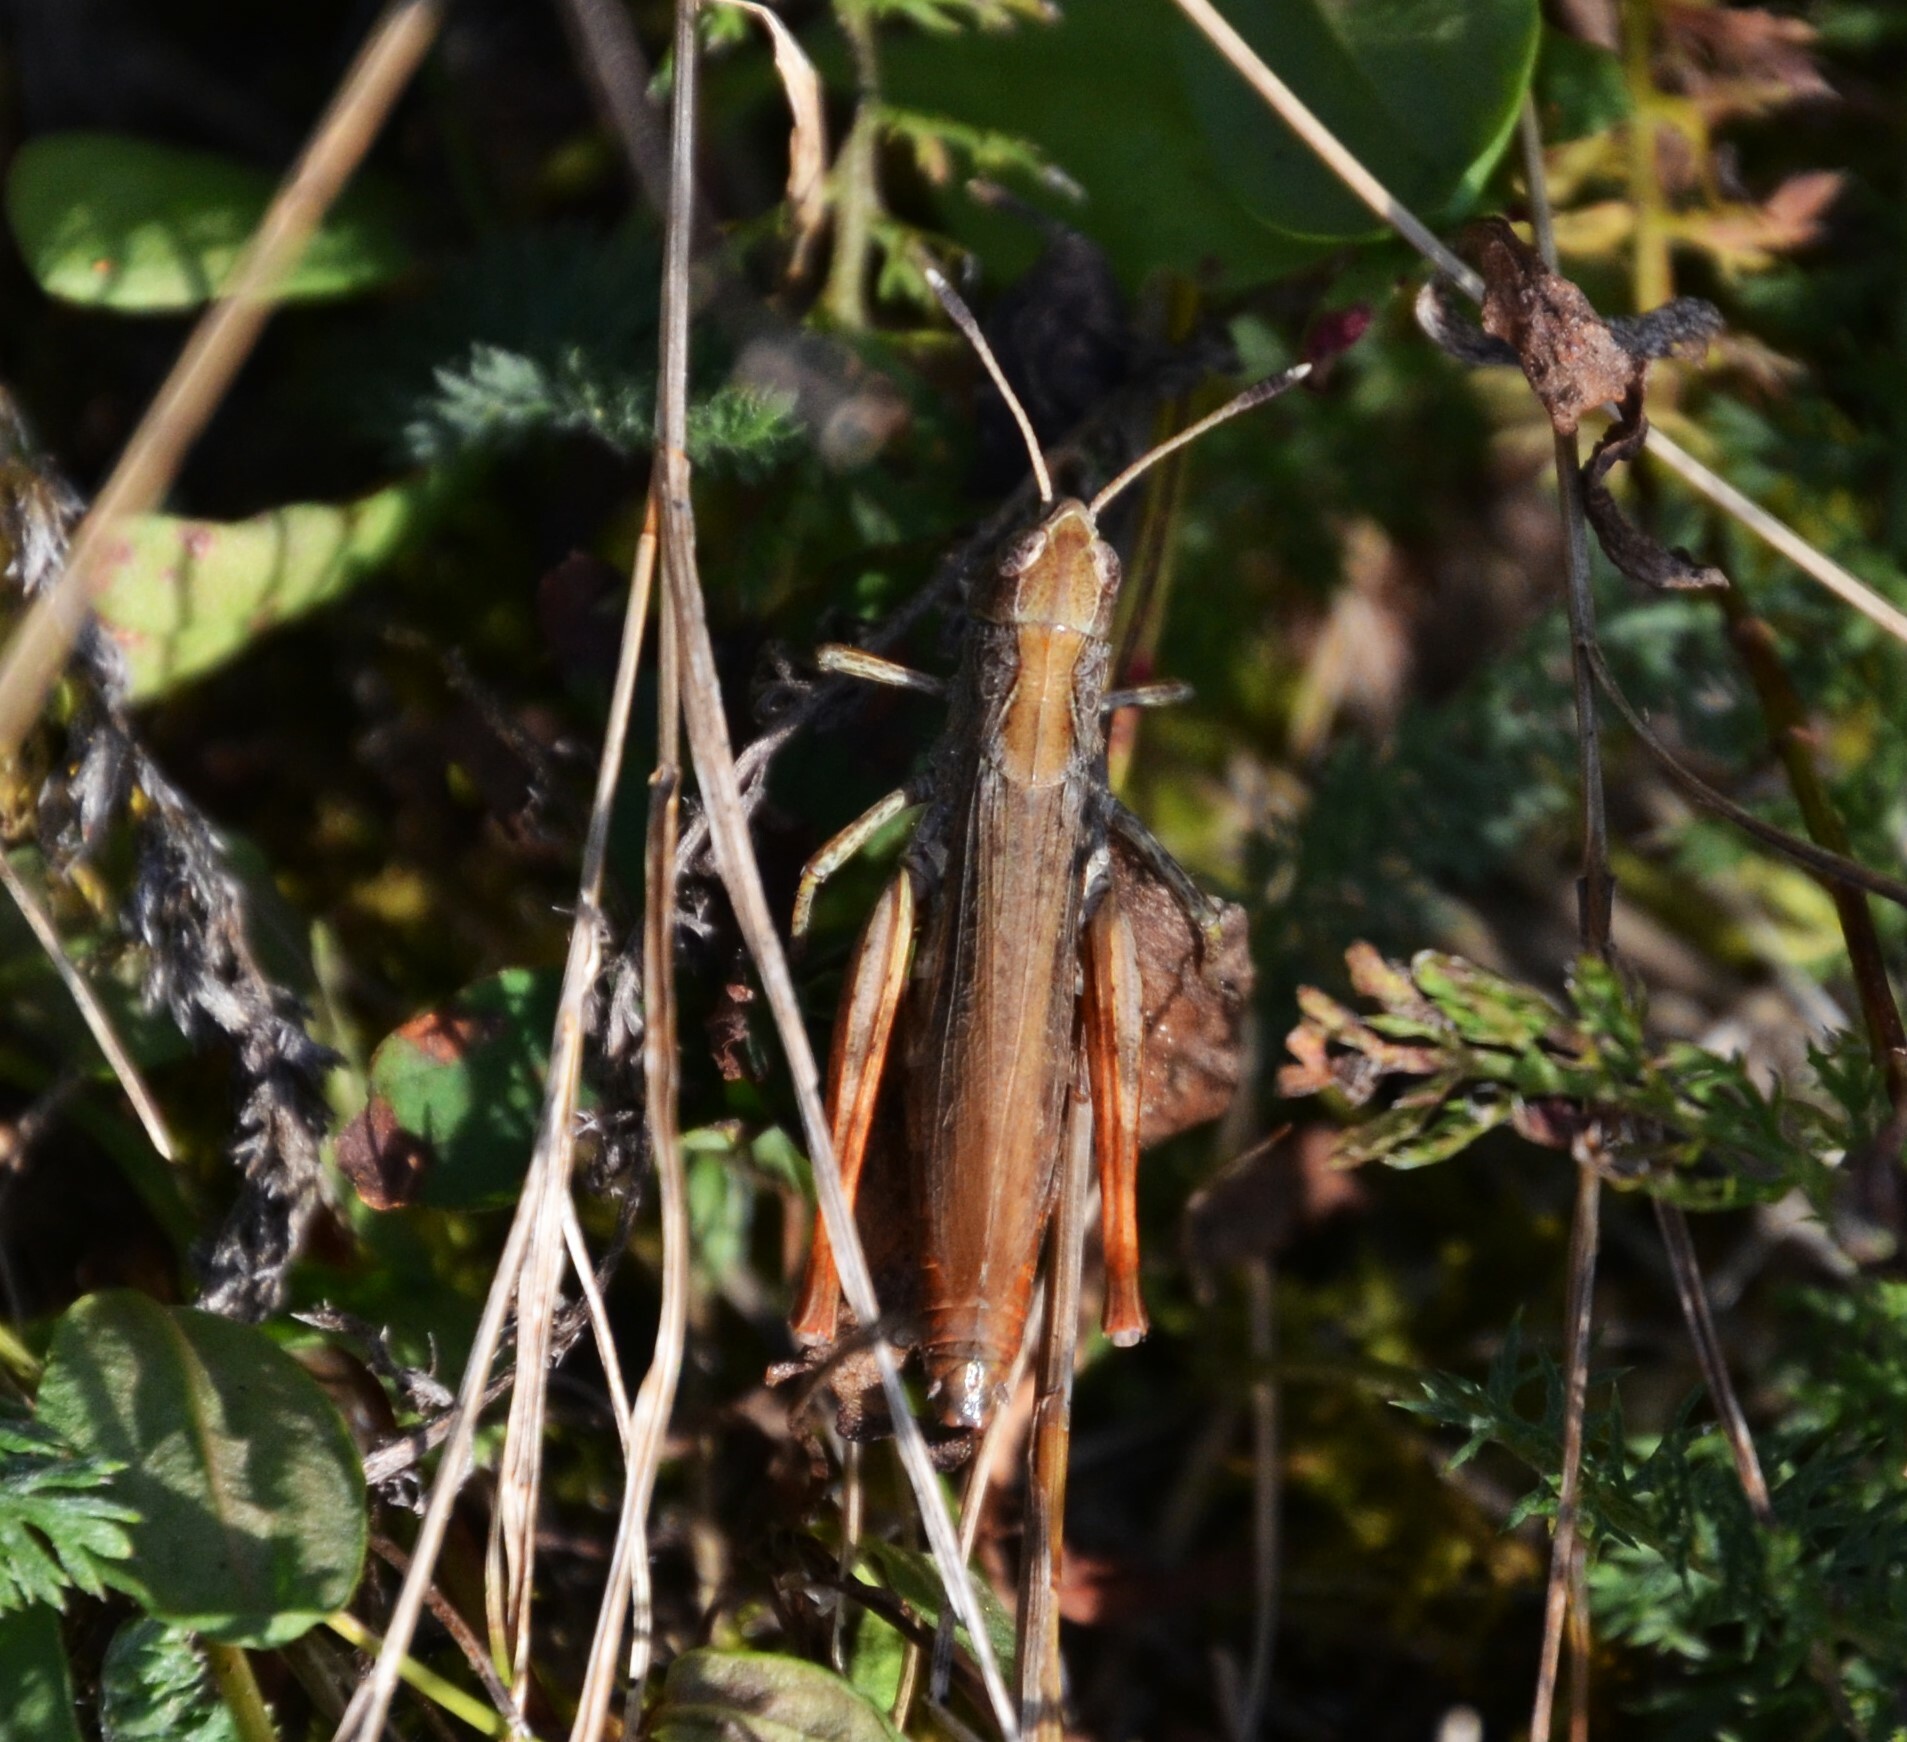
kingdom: Animalia
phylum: Arthropoda
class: Insecta
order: Orthoptera
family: Acrididae
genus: Gomphocerippus
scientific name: Gomphocerippus rufus
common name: Rufous grasshopper
